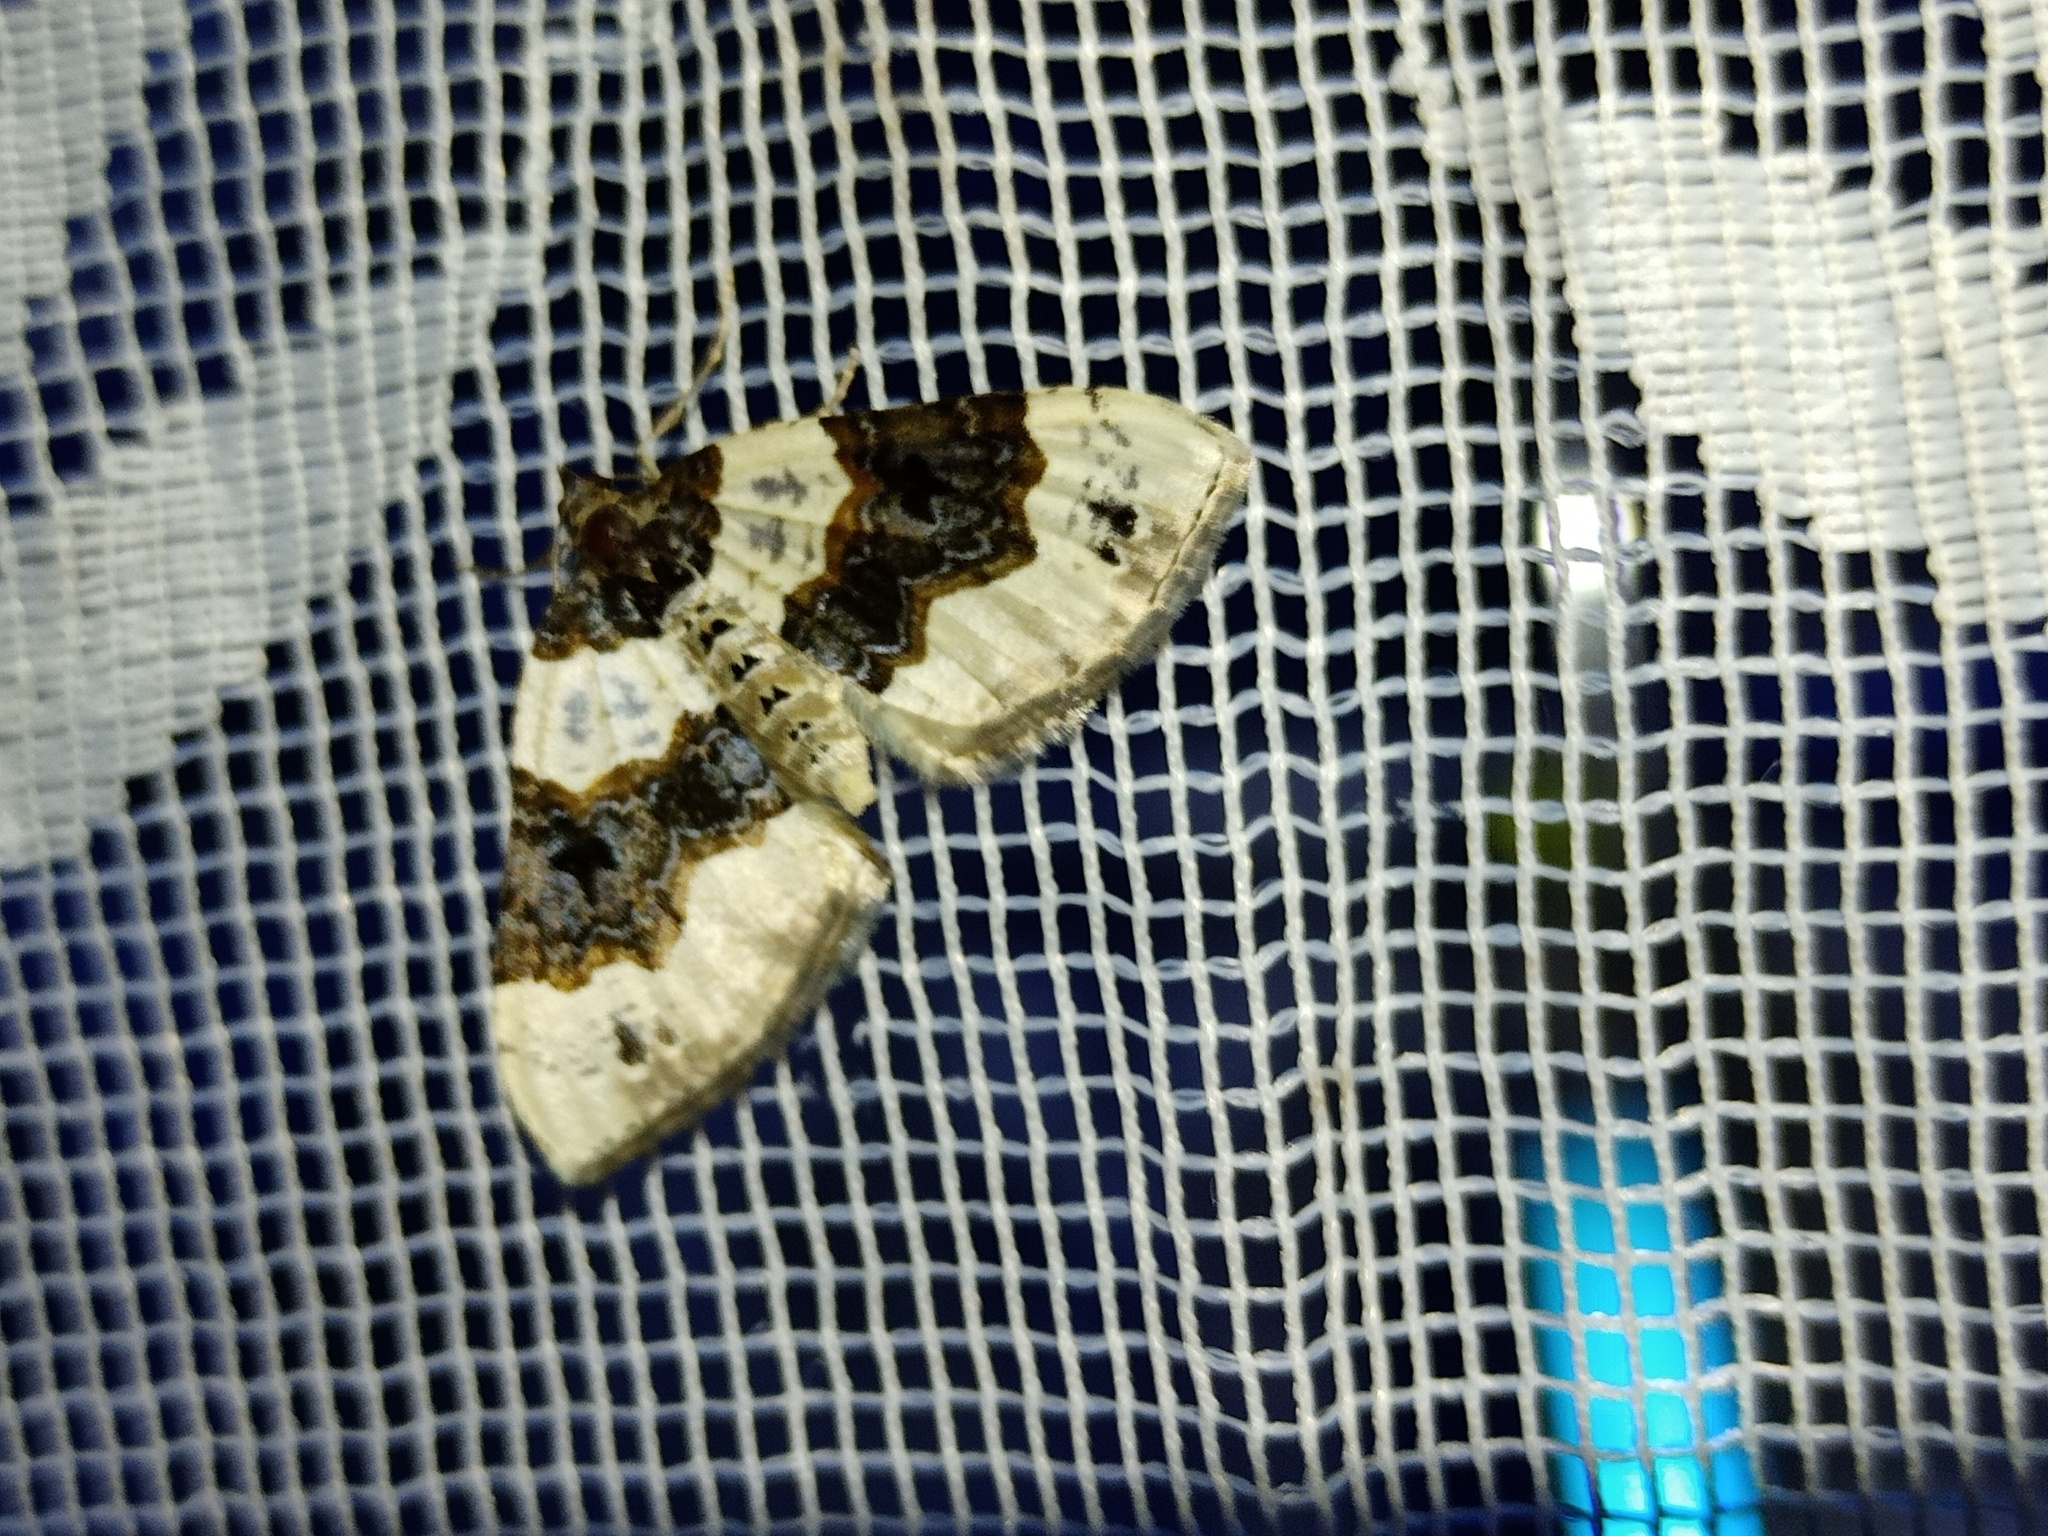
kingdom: Animalia
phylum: Arthropoda
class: Insecta
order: Lepidoptera
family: Geometridae
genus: Cosmorhoe
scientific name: Cosmorhoe ocellata
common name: Purple bar
